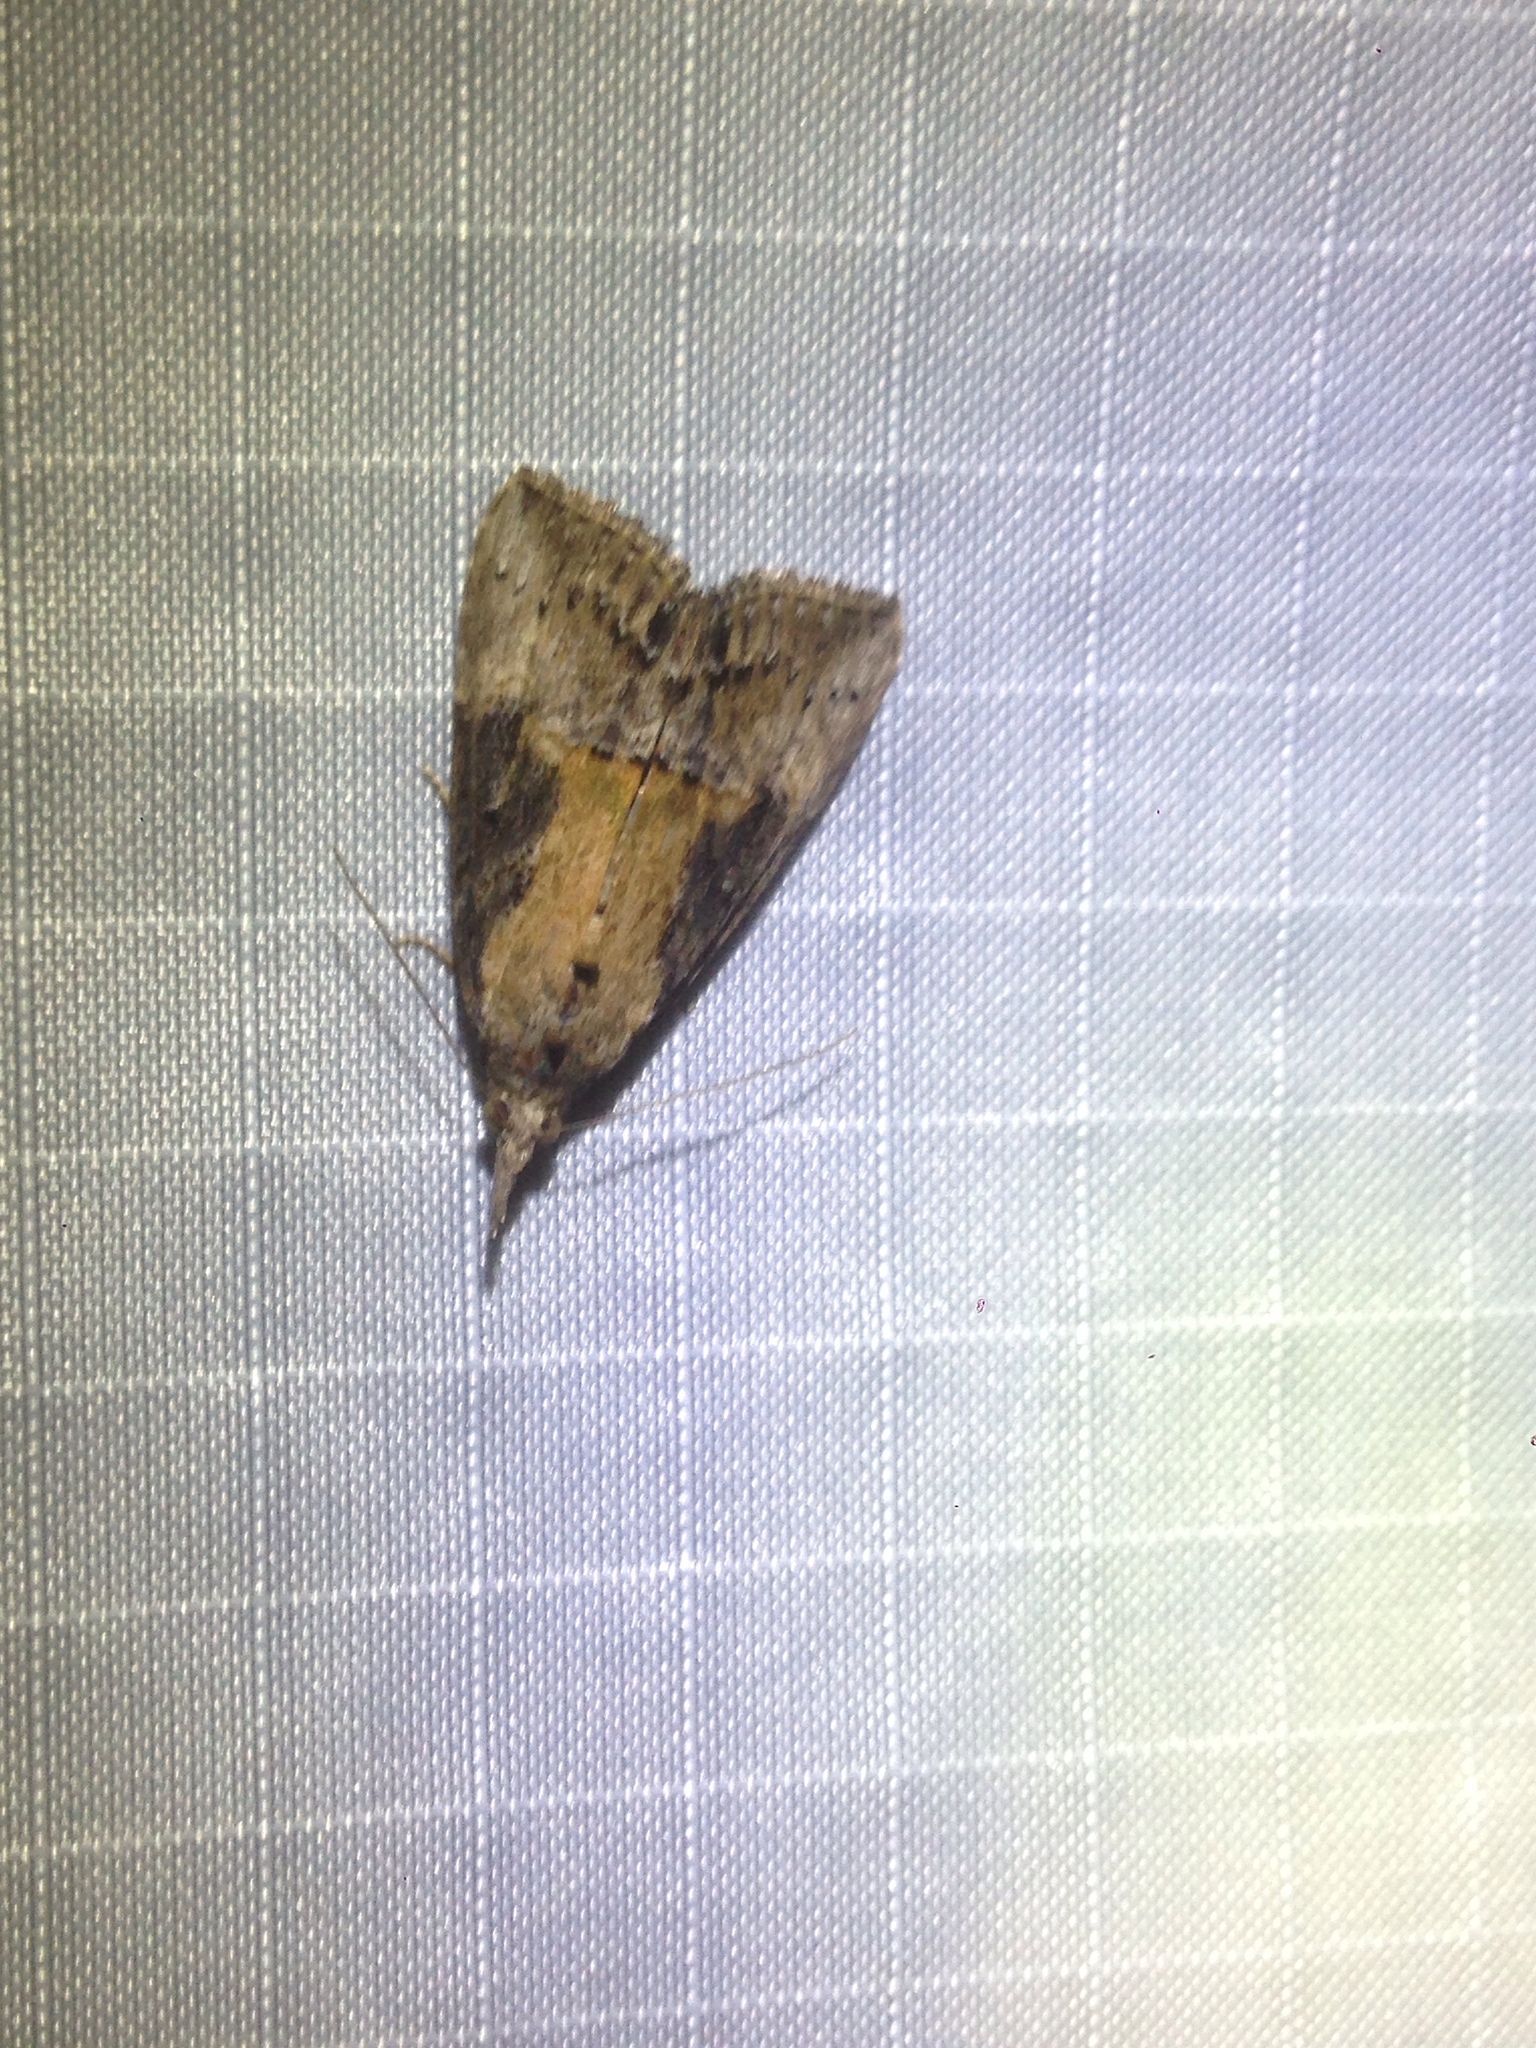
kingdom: Animalia
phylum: Arthropoda
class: Insecta
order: Lepidoptera
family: Erebidae
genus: Hypena
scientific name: Hypena scabra
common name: Green cloverworm
